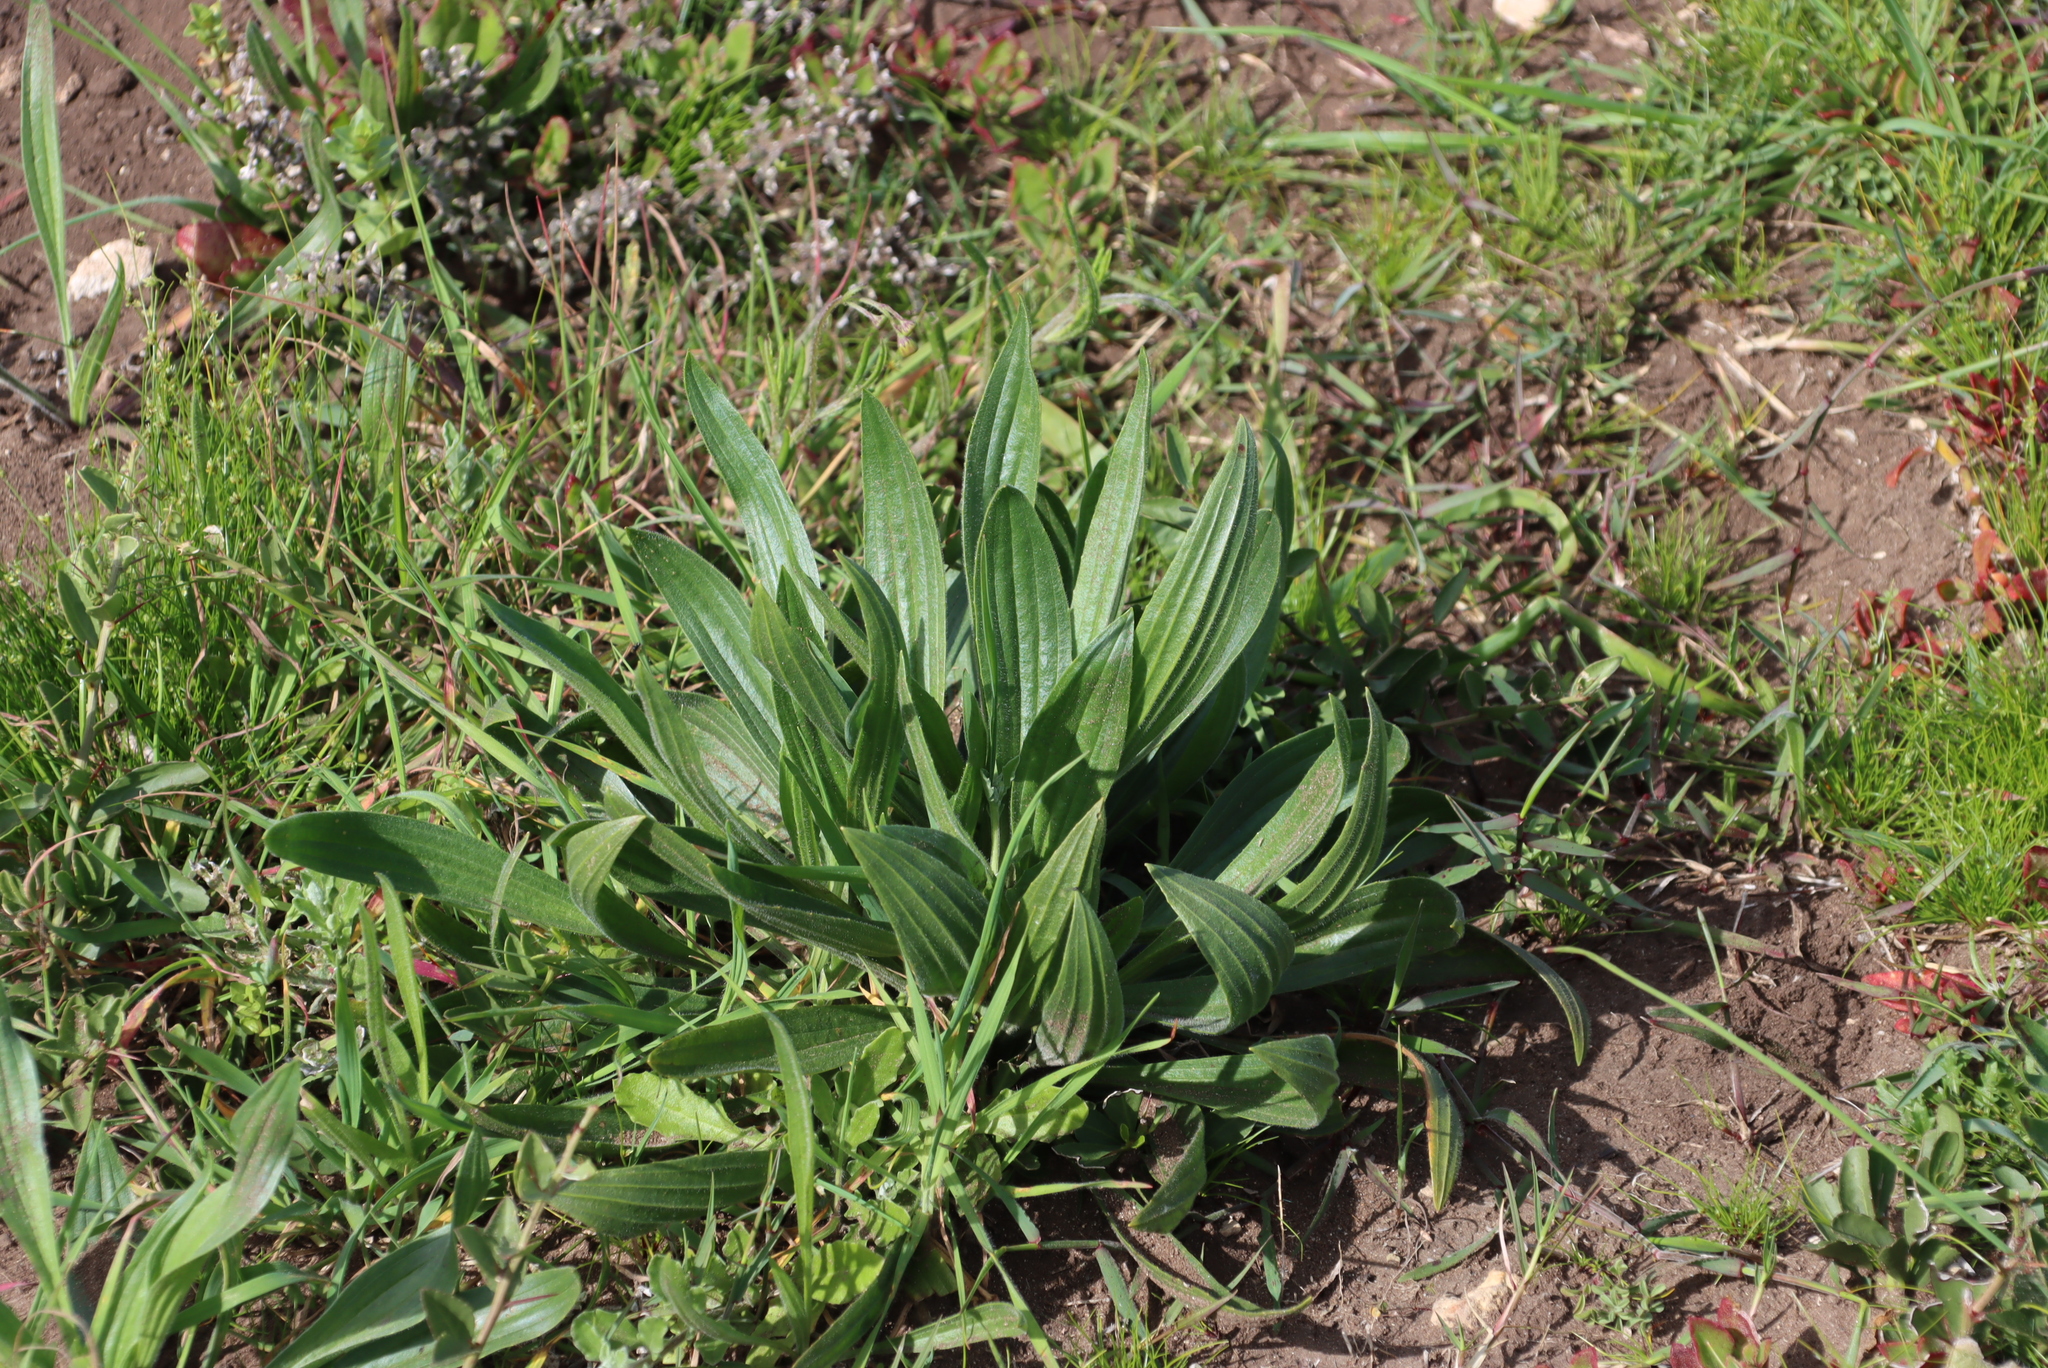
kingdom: Plantae
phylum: Tracheophyta
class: Magnoliopsida
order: Lamiales
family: Plantaginaceae
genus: Plantago
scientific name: Plantago lanceolata
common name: Ribwort plantain
